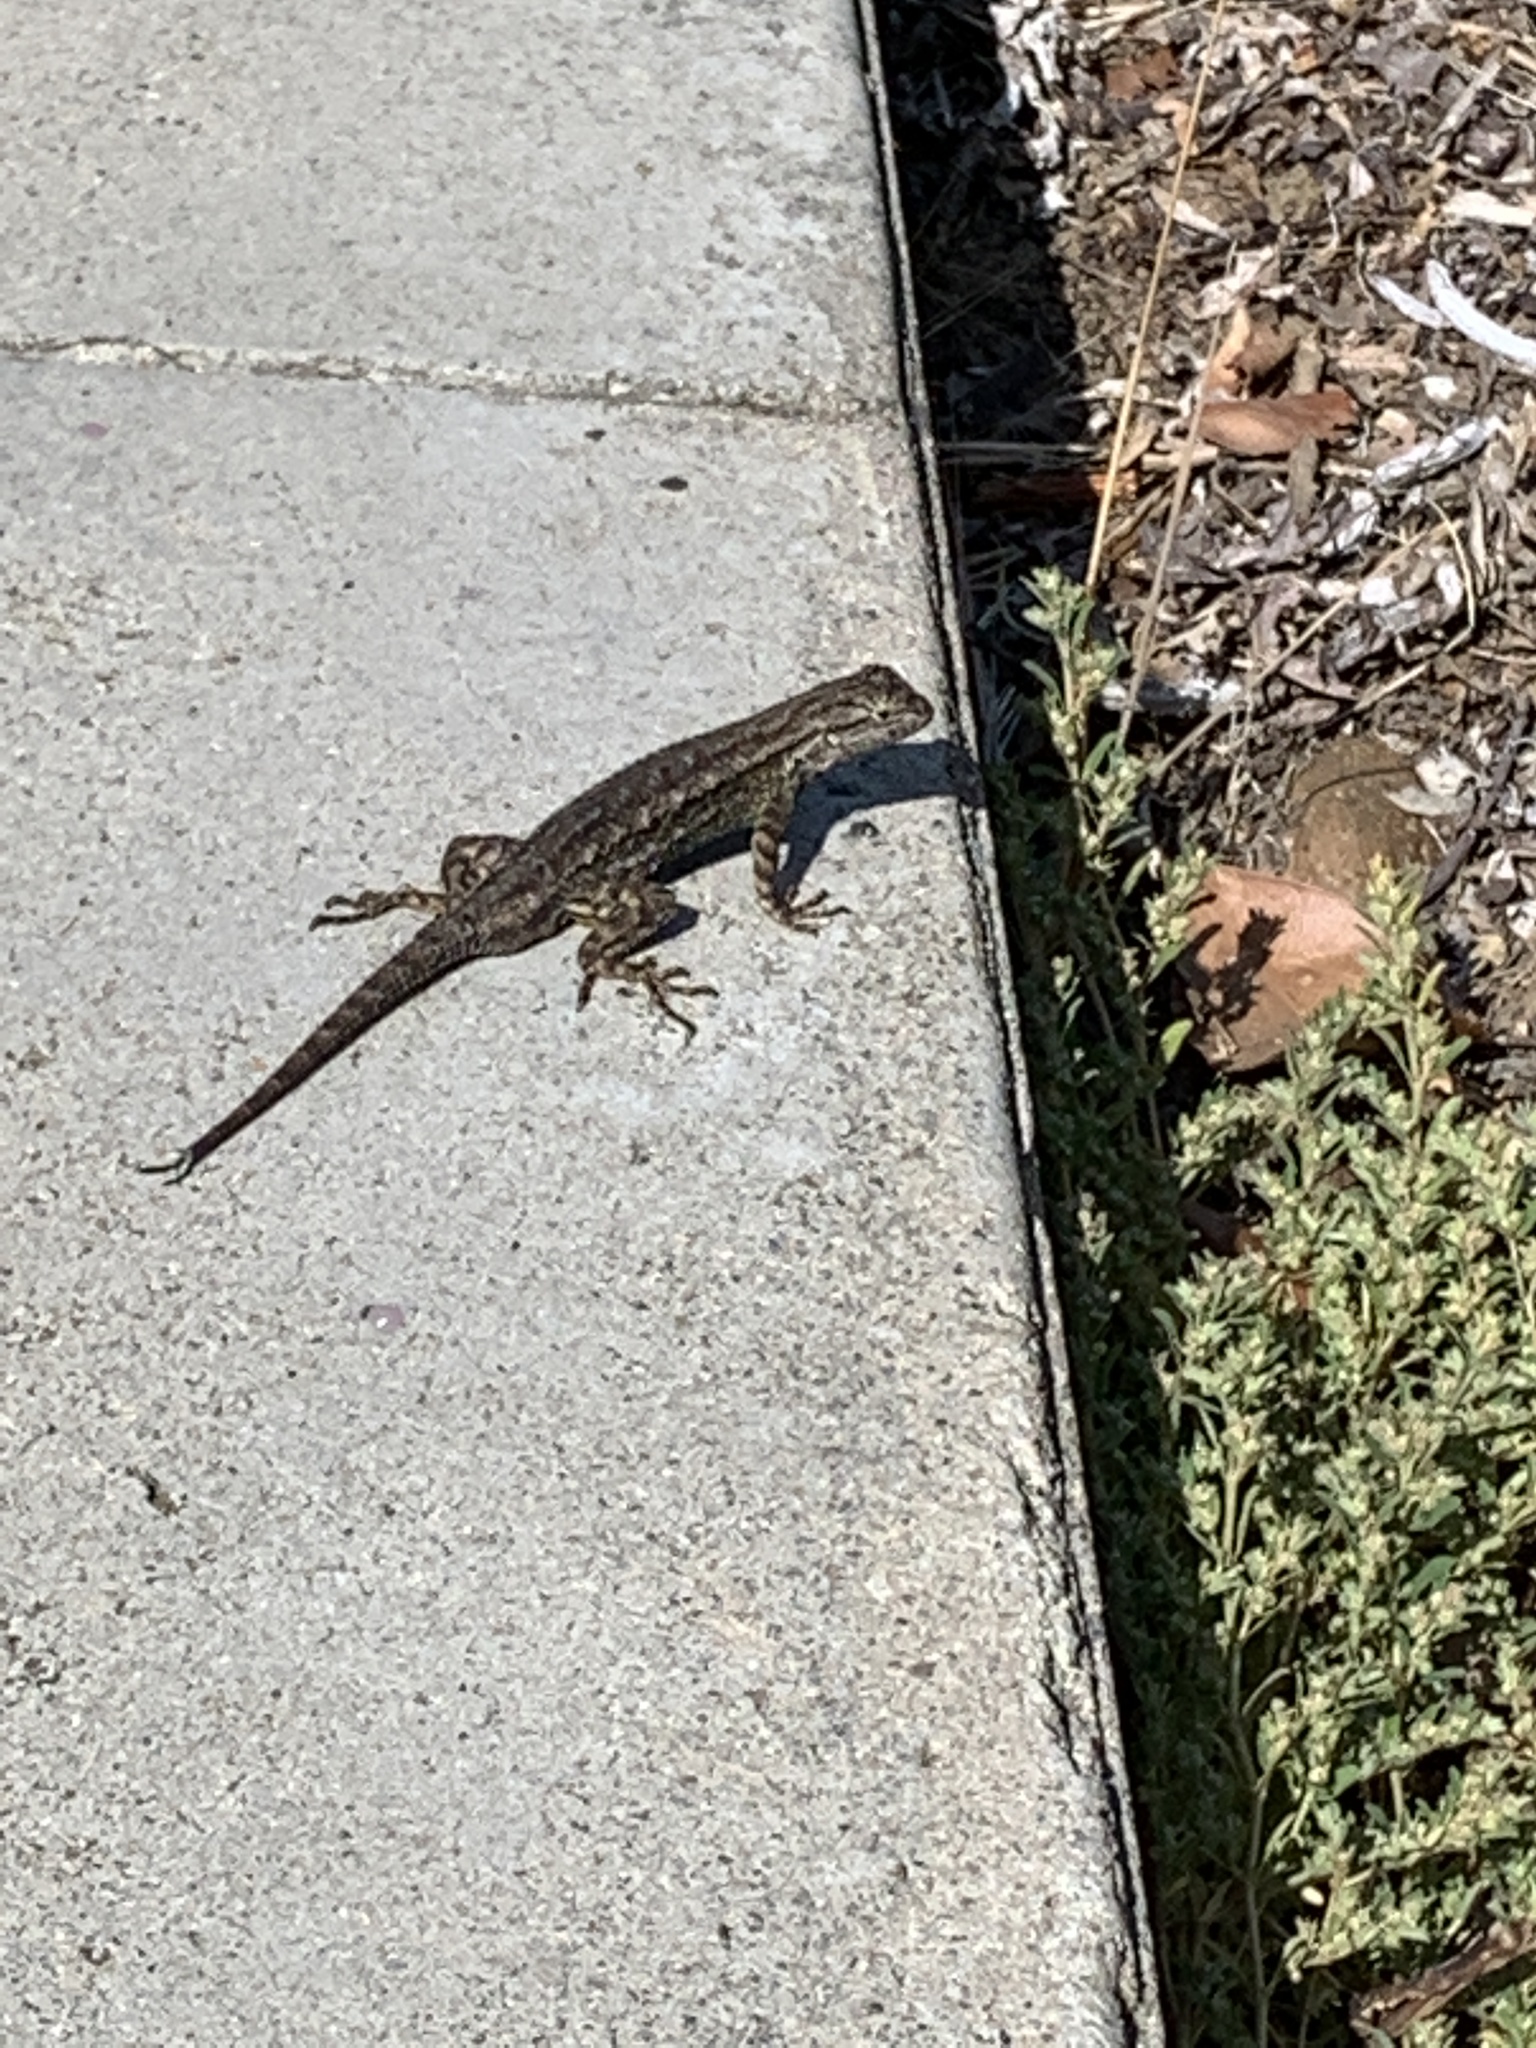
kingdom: Animalia
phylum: Chordata
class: Squamata
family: Phrynosomatidae
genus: Sceloporus
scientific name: Sceloporus occidentalis
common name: Western fence lizard
